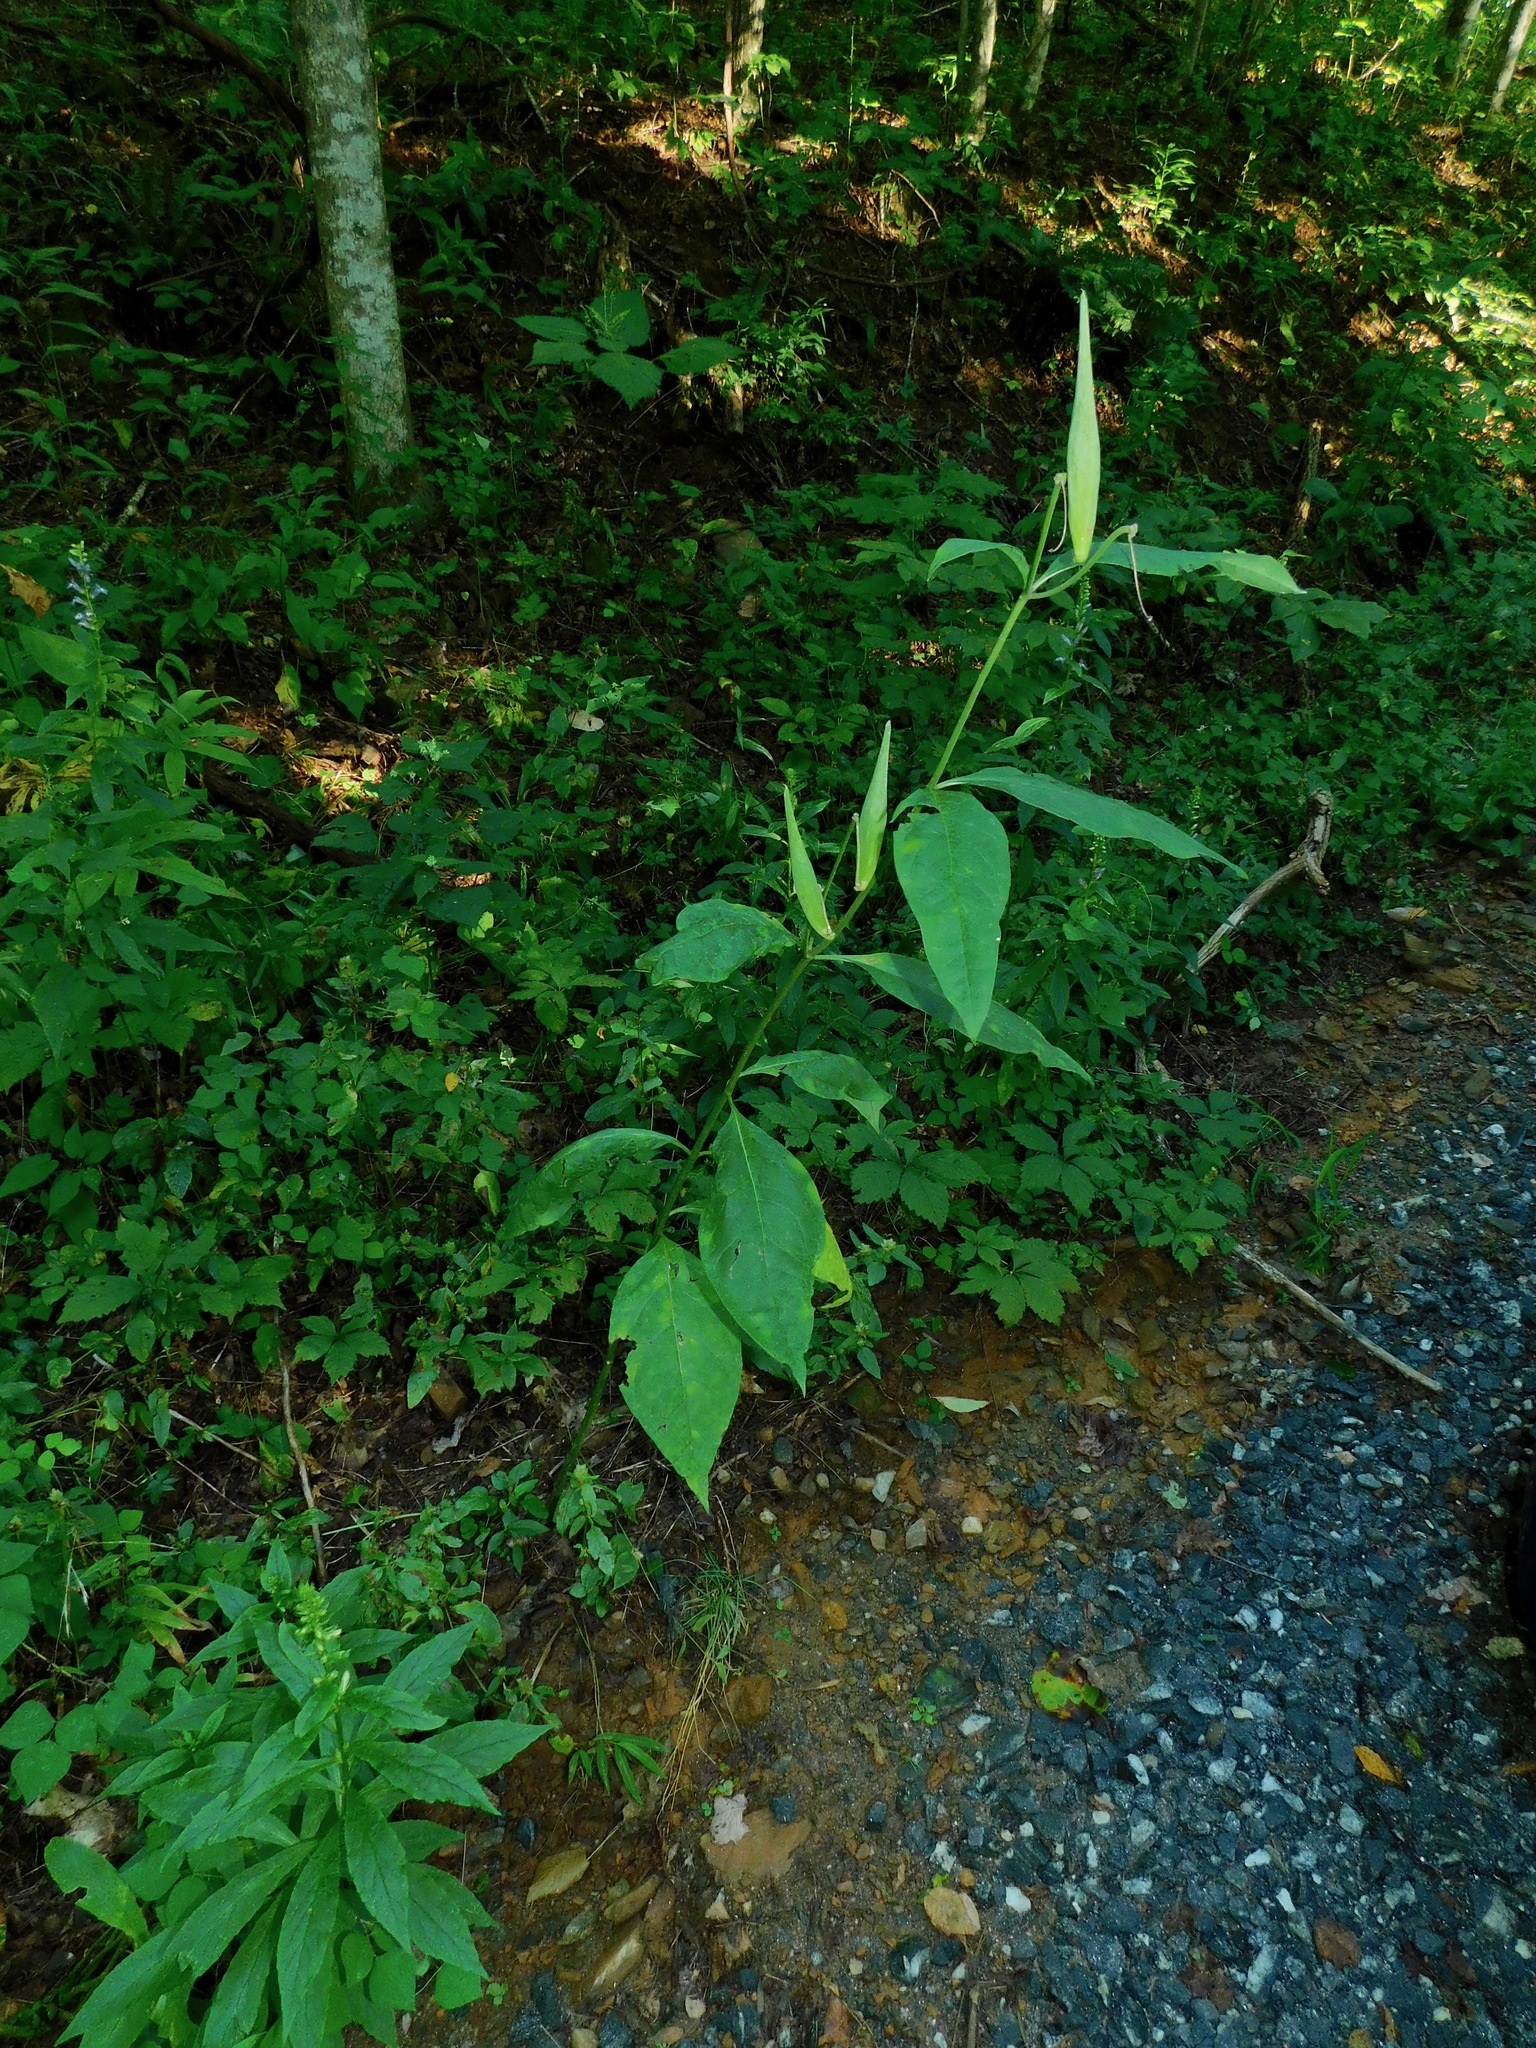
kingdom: Plantae
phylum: Tracheophyta
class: Magnoliopsida
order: Gentianales
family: Apocynaceae
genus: Asclepias
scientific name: Asclepias exaltata
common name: Poke milkweed
